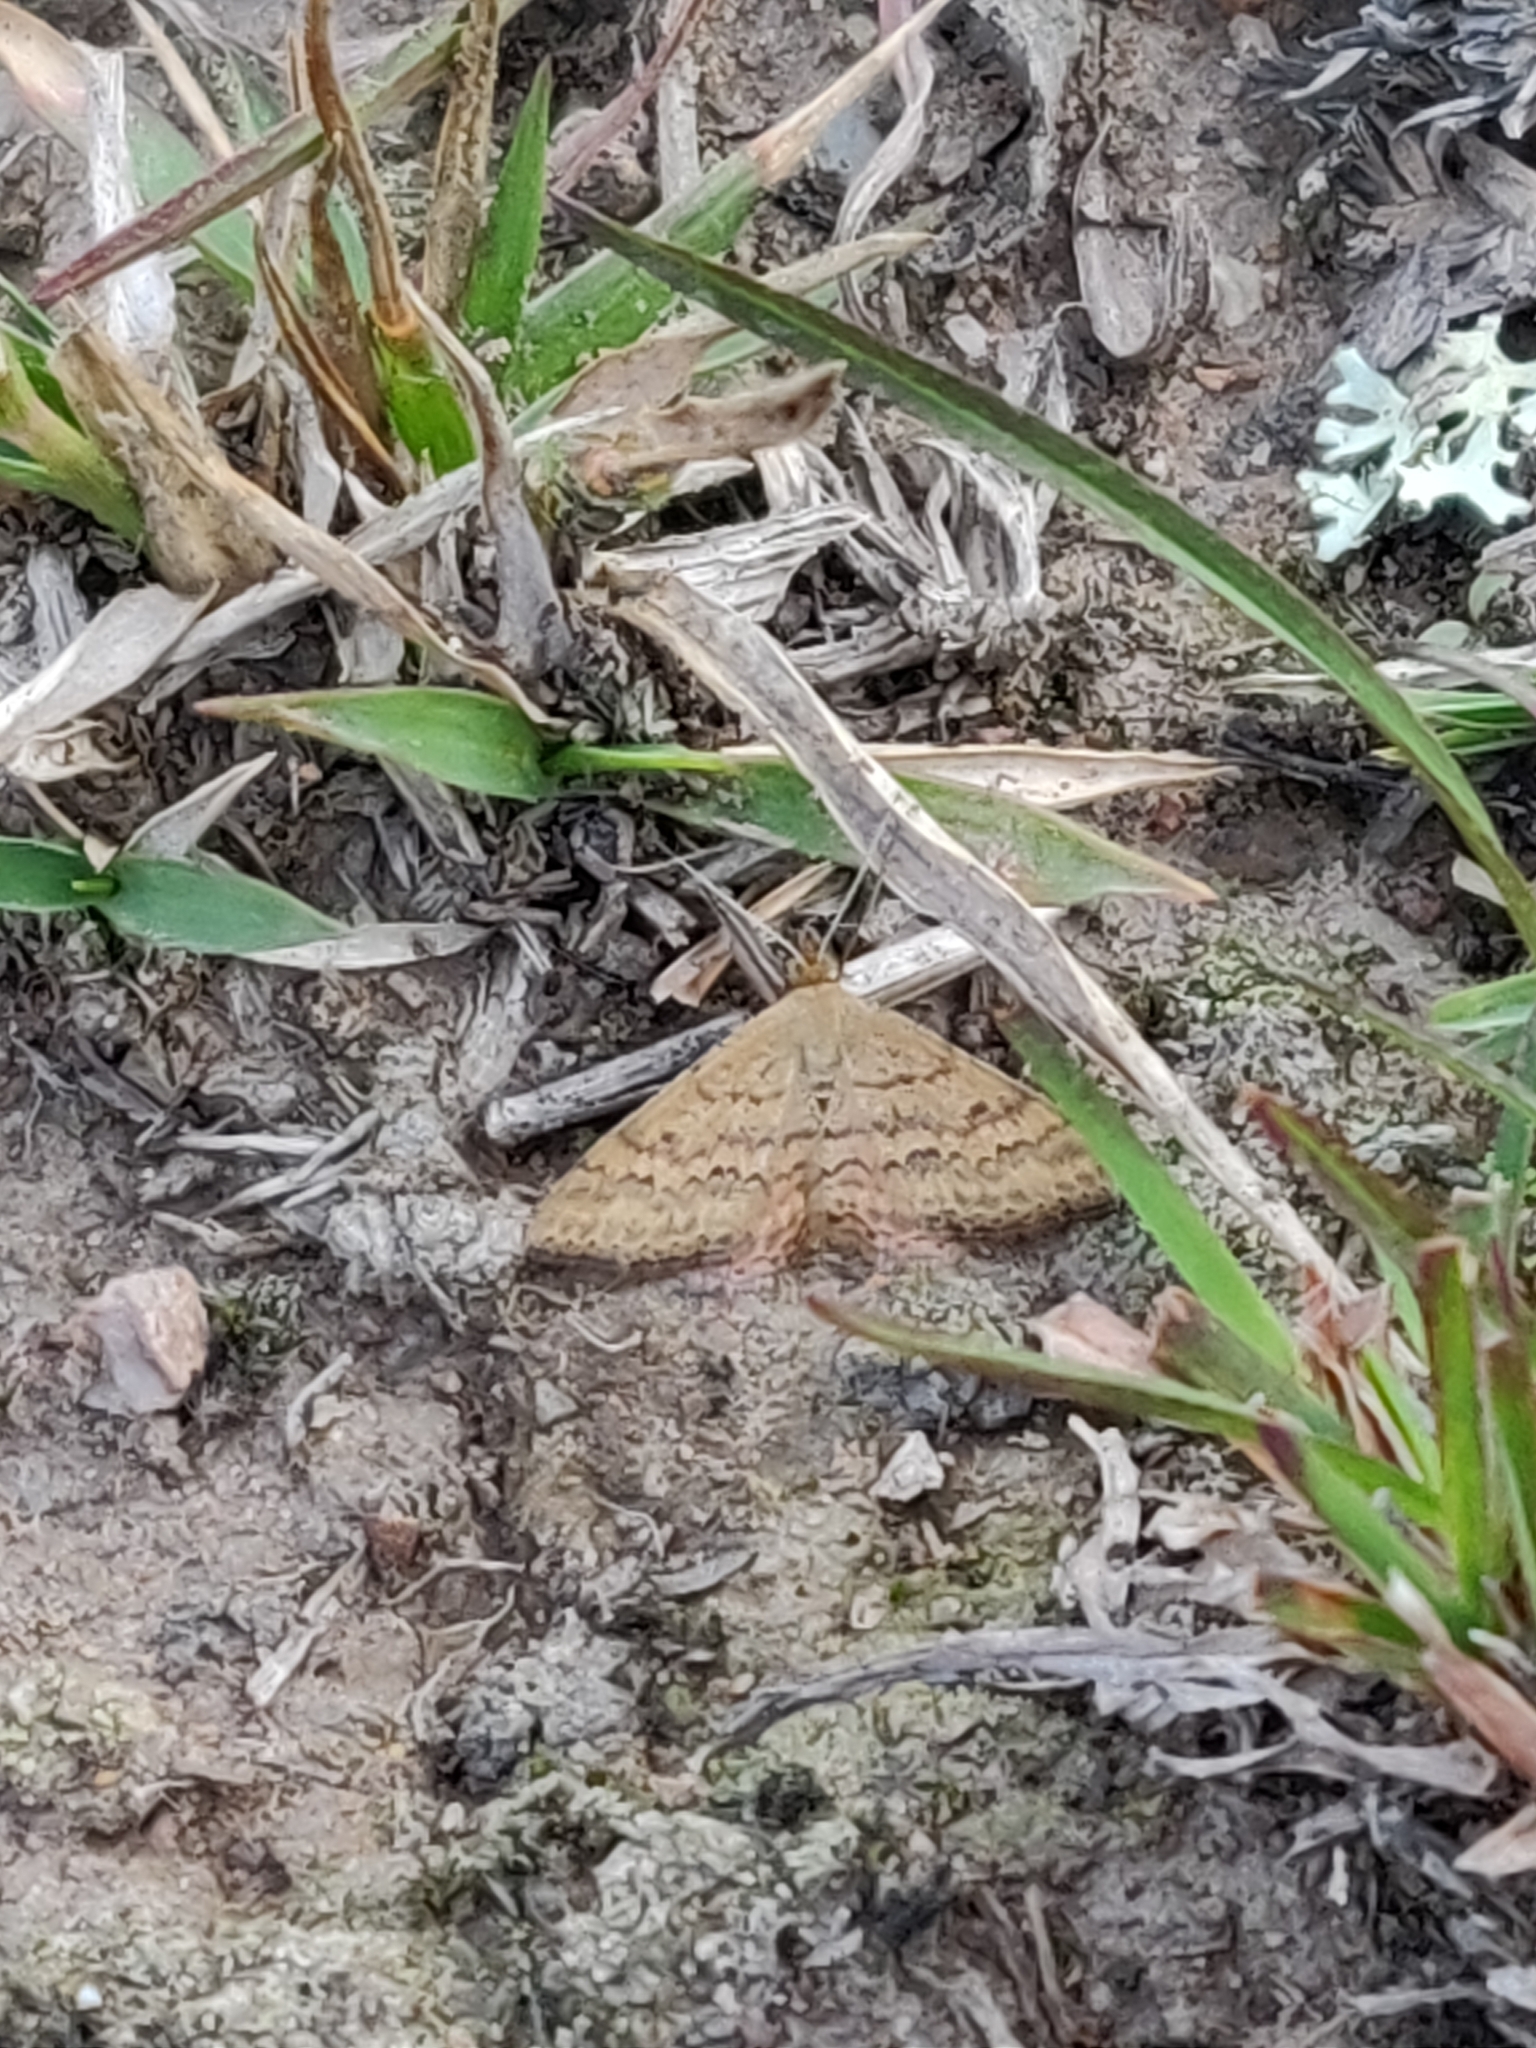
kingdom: Animalia
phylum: Arthropoda
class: Insecta
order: Lepidoptera
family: Geometridae
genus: Scopula
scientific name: Scopula rubraria
